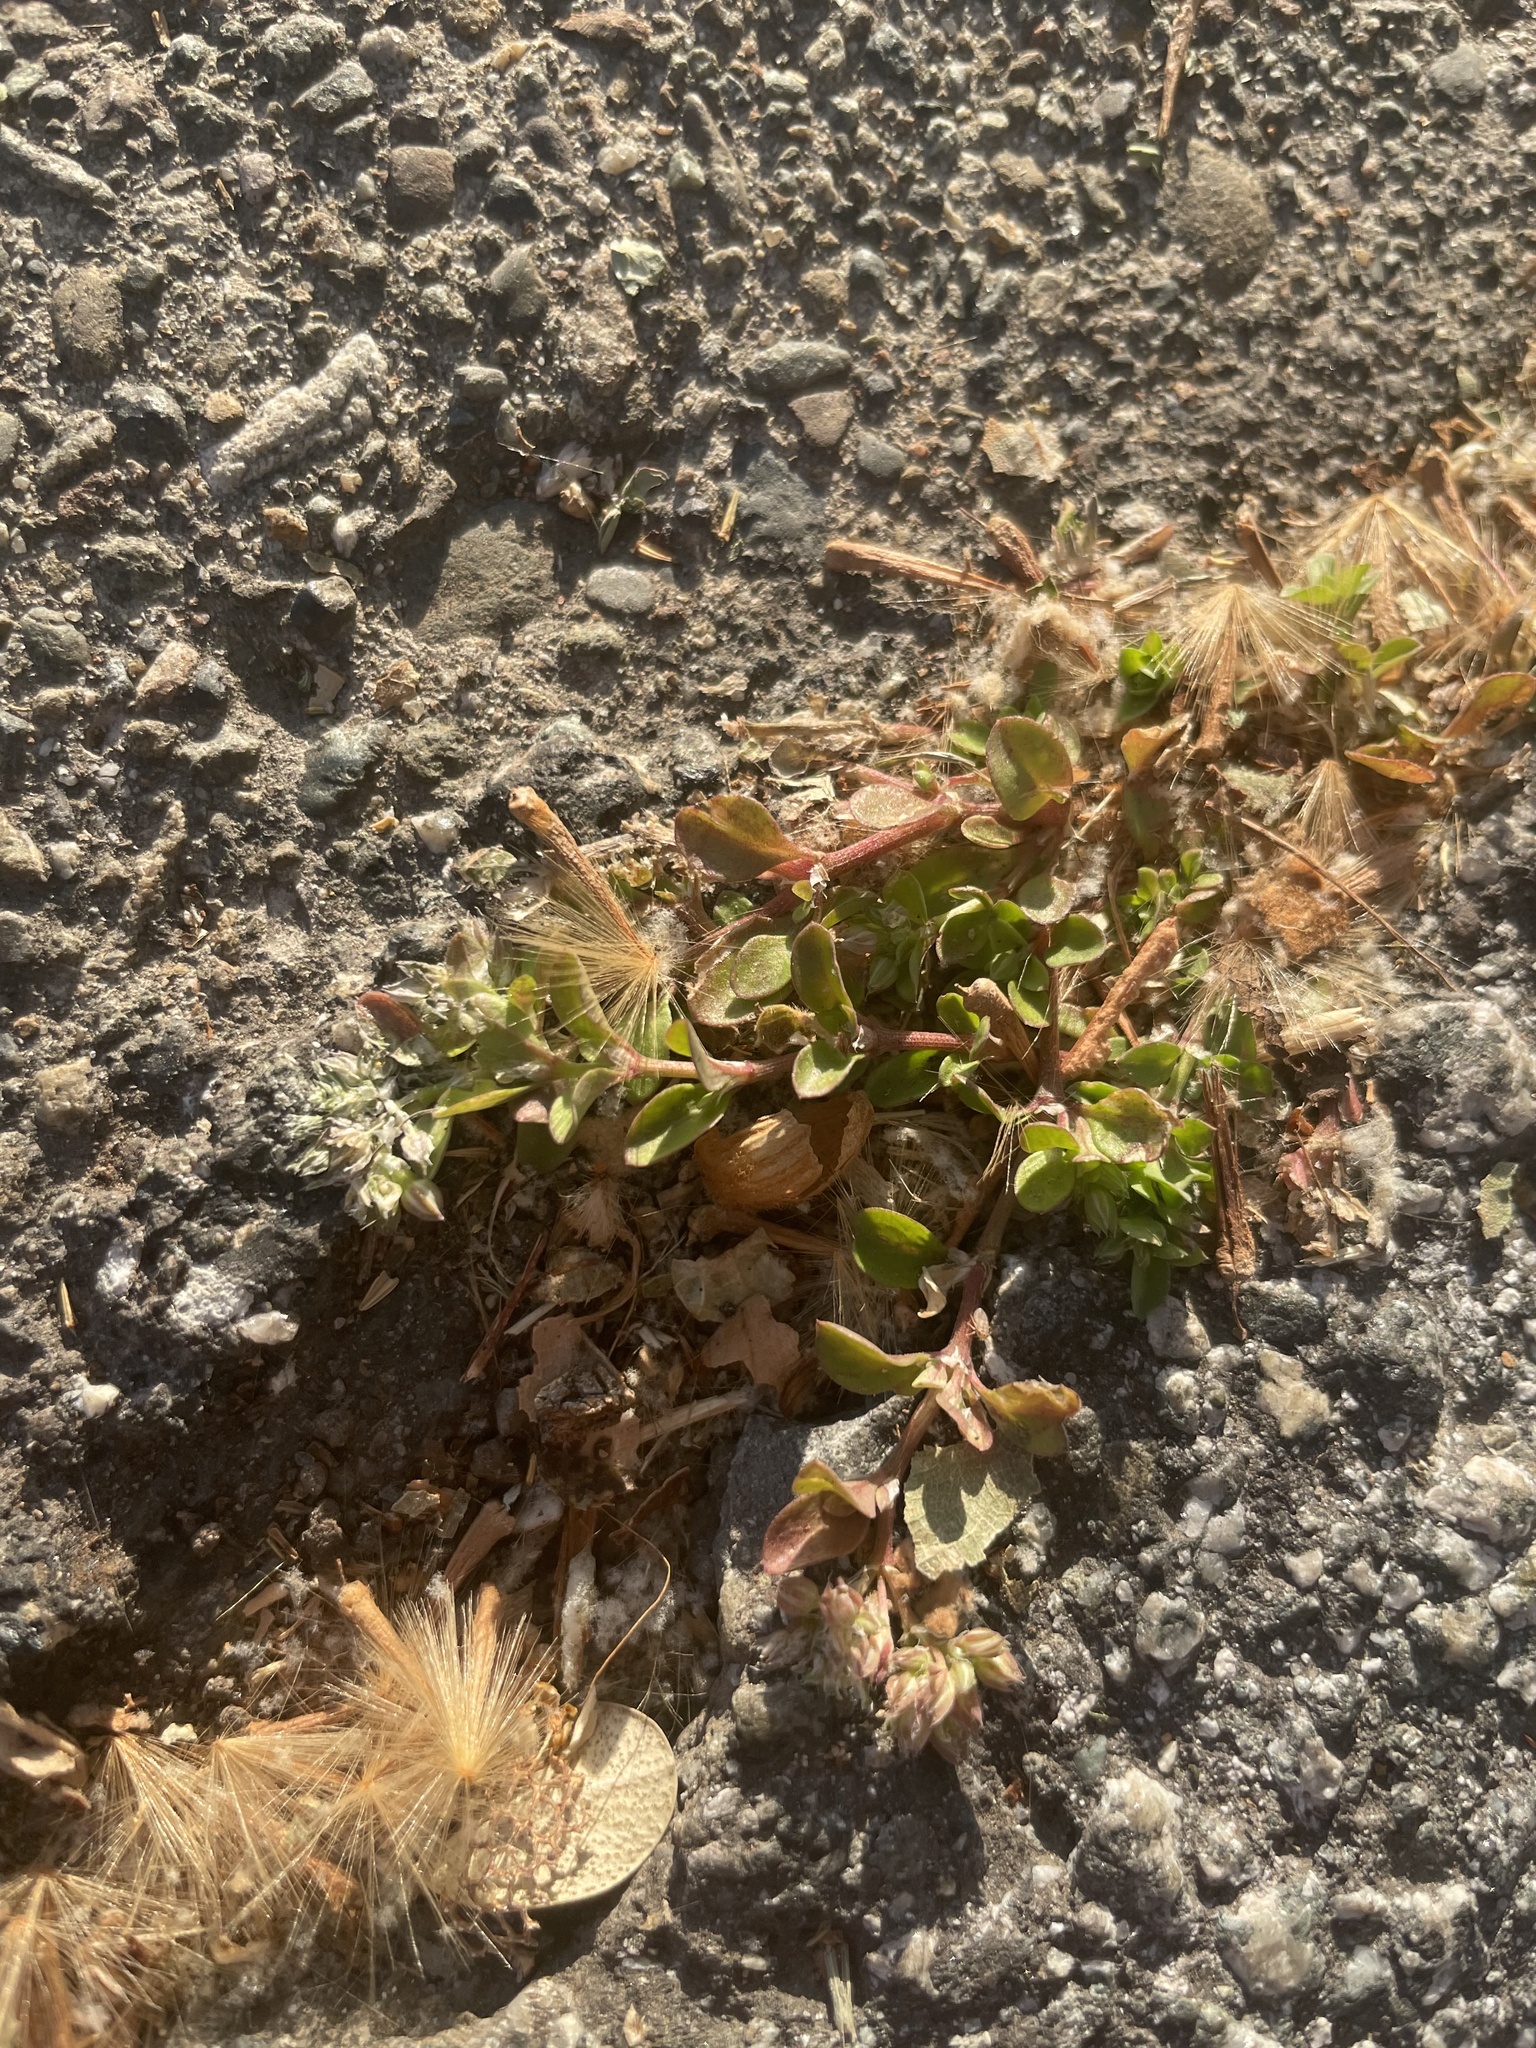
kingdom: Plantae
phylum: Tracheophyta
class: Magnoliopsida
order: Caryophyllales
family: Caryophyllaceae
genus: Polycarpon
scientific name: Polycarpon tetraphyllum
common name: Four-leaved all-seed
